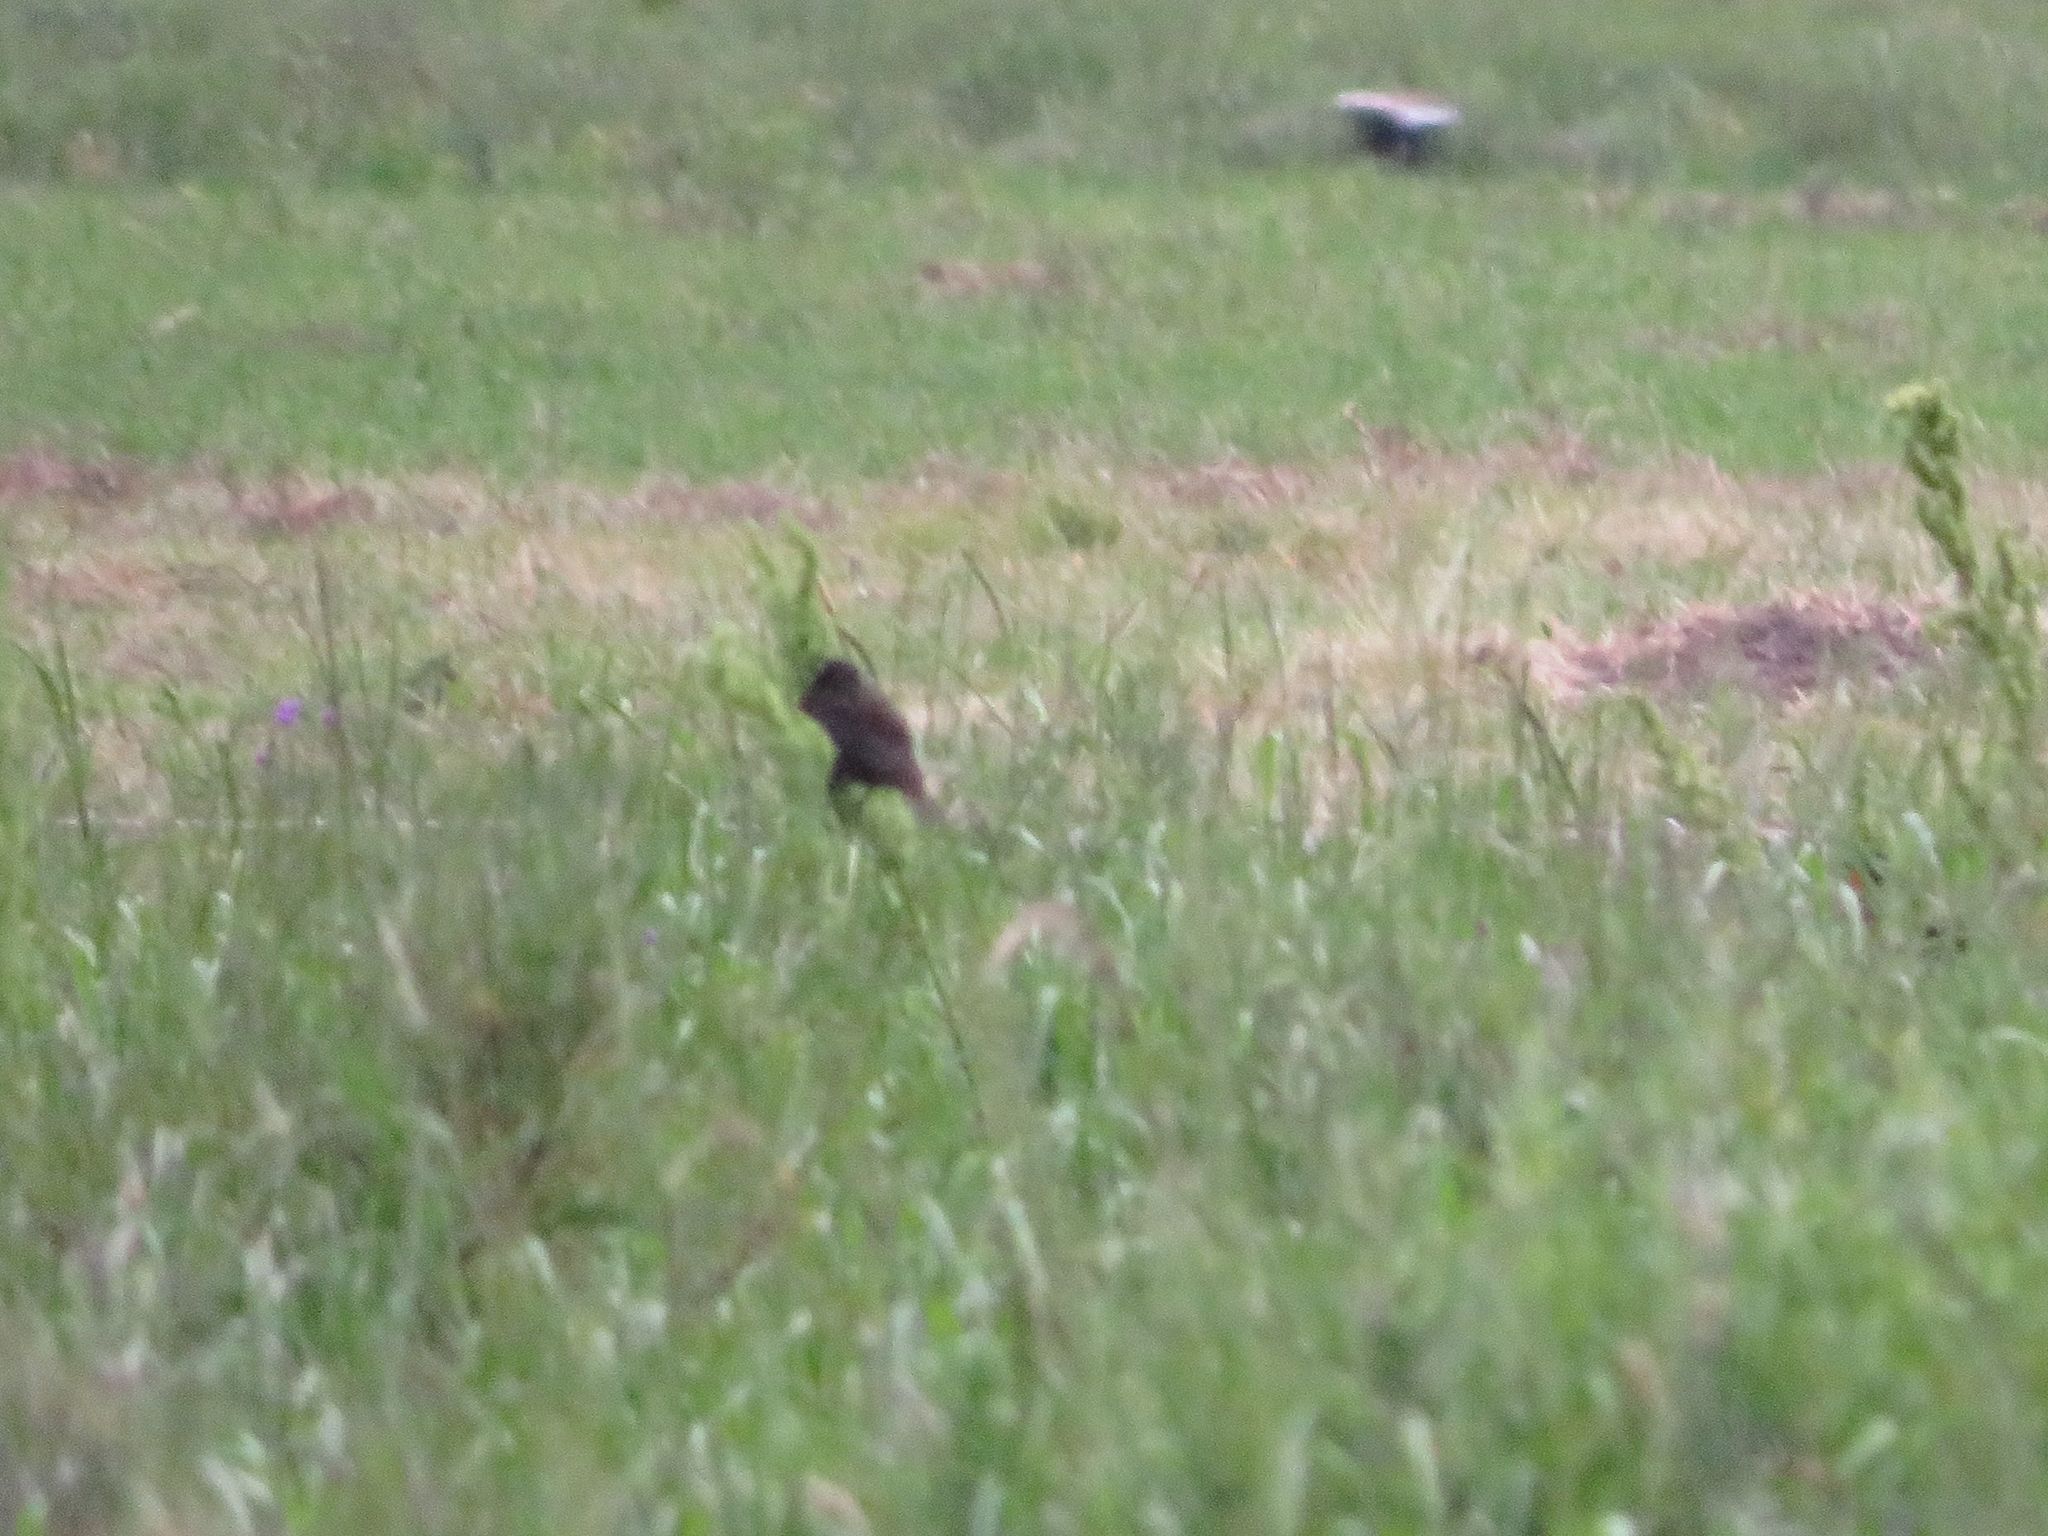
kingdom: Animalia
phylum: Chordata
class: Aves
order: Passeriformes
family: Icteridae
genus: Sturnella
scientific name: Sturnella superciliaris
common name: White-browed blackbird
